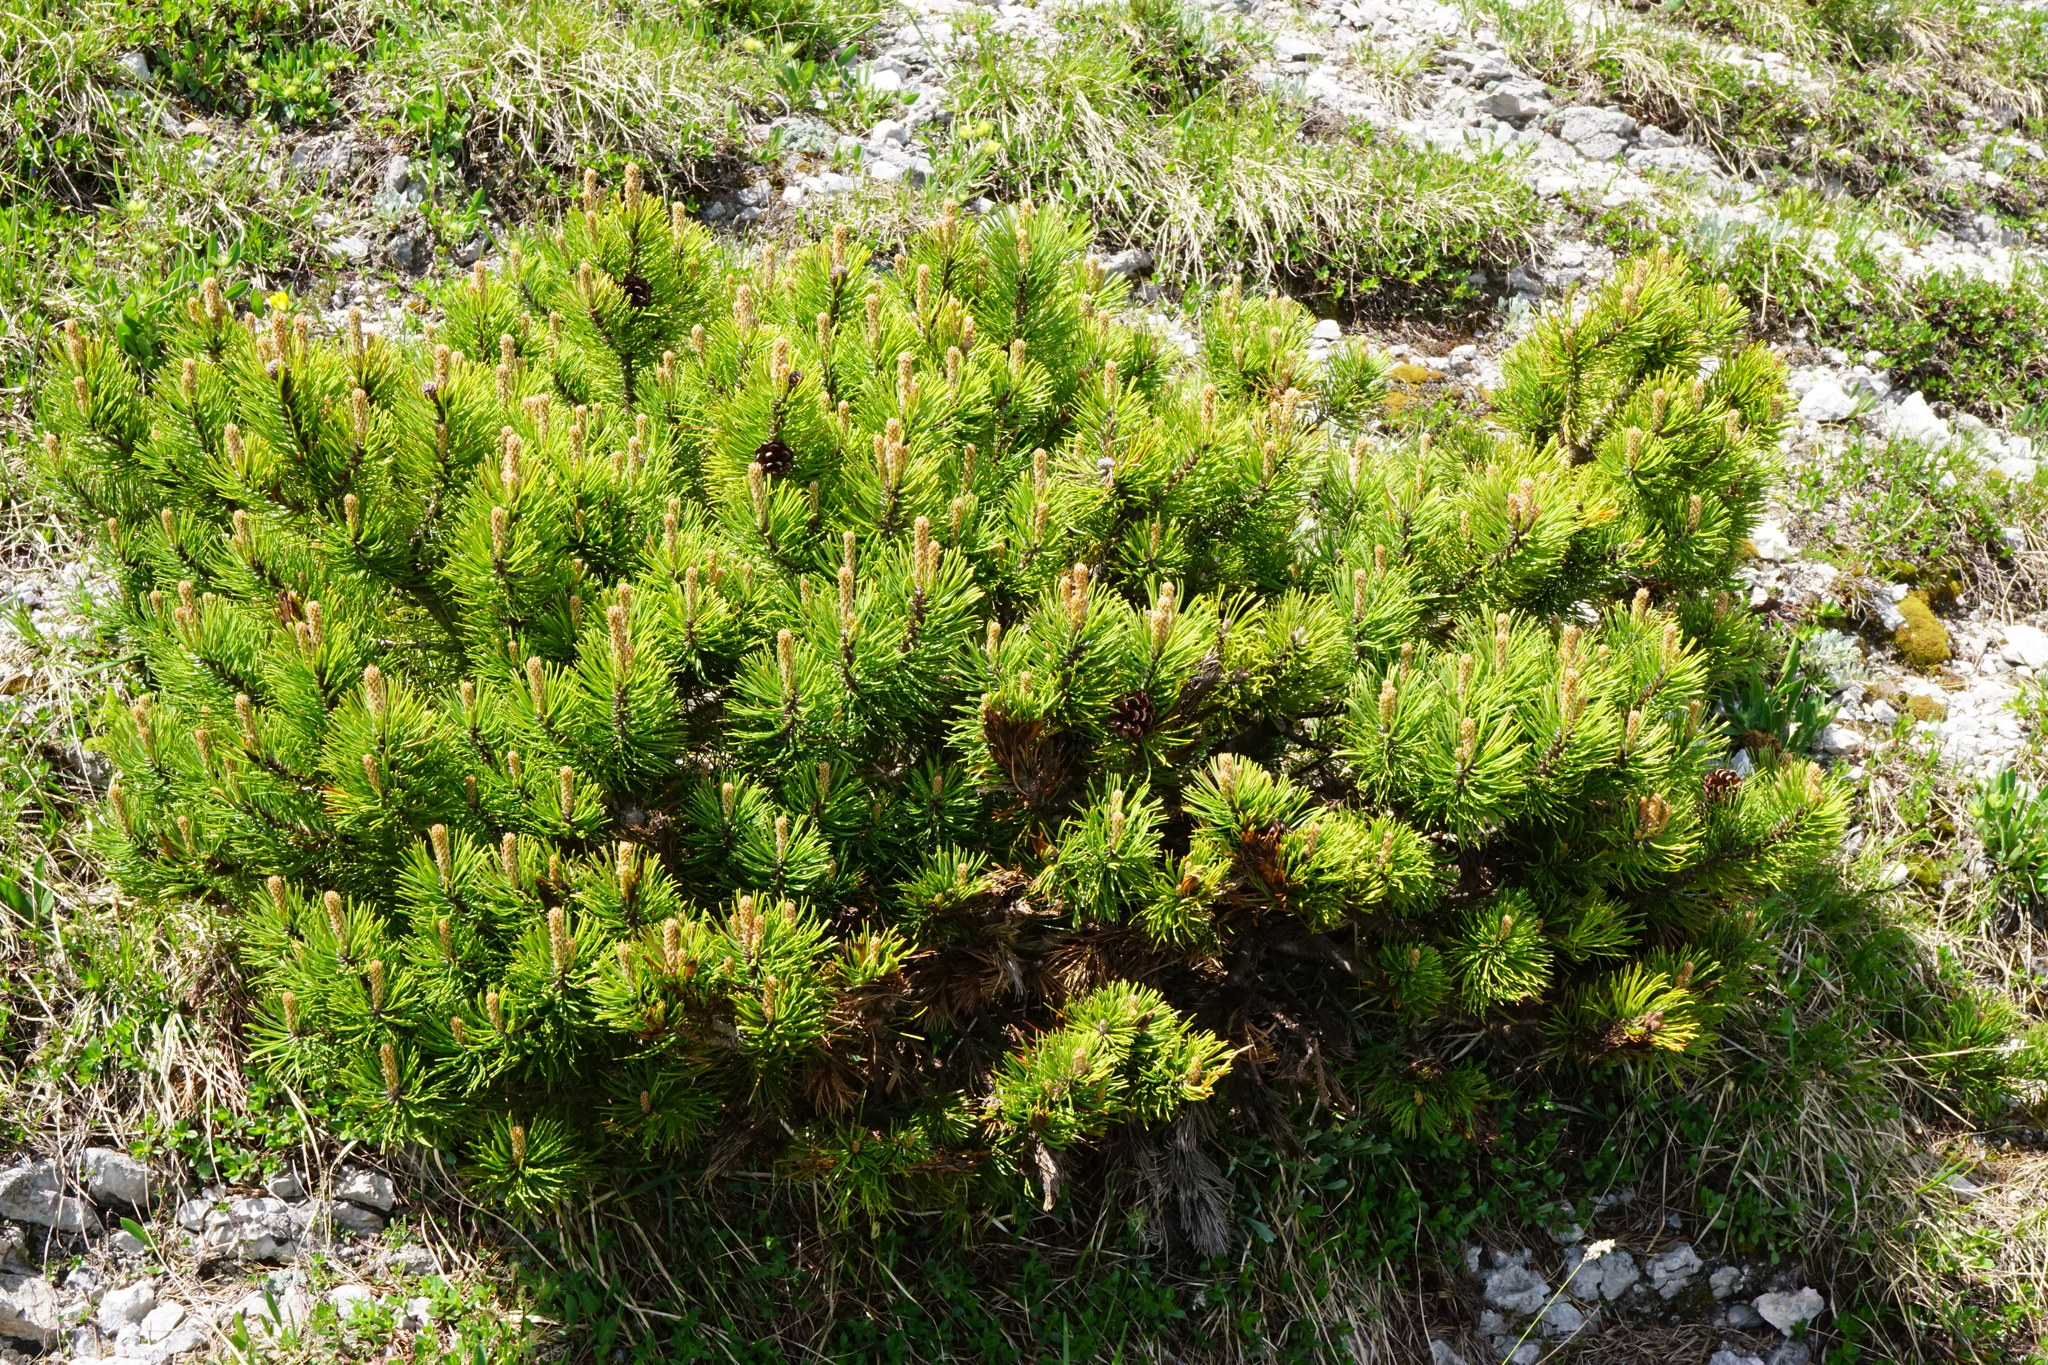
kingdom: Plantae
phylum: Tracheophyta
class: Pinopsida
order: Pinales
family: Pinaceae
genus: Pinus
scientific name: Pinus mugo
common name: Mugo pine
